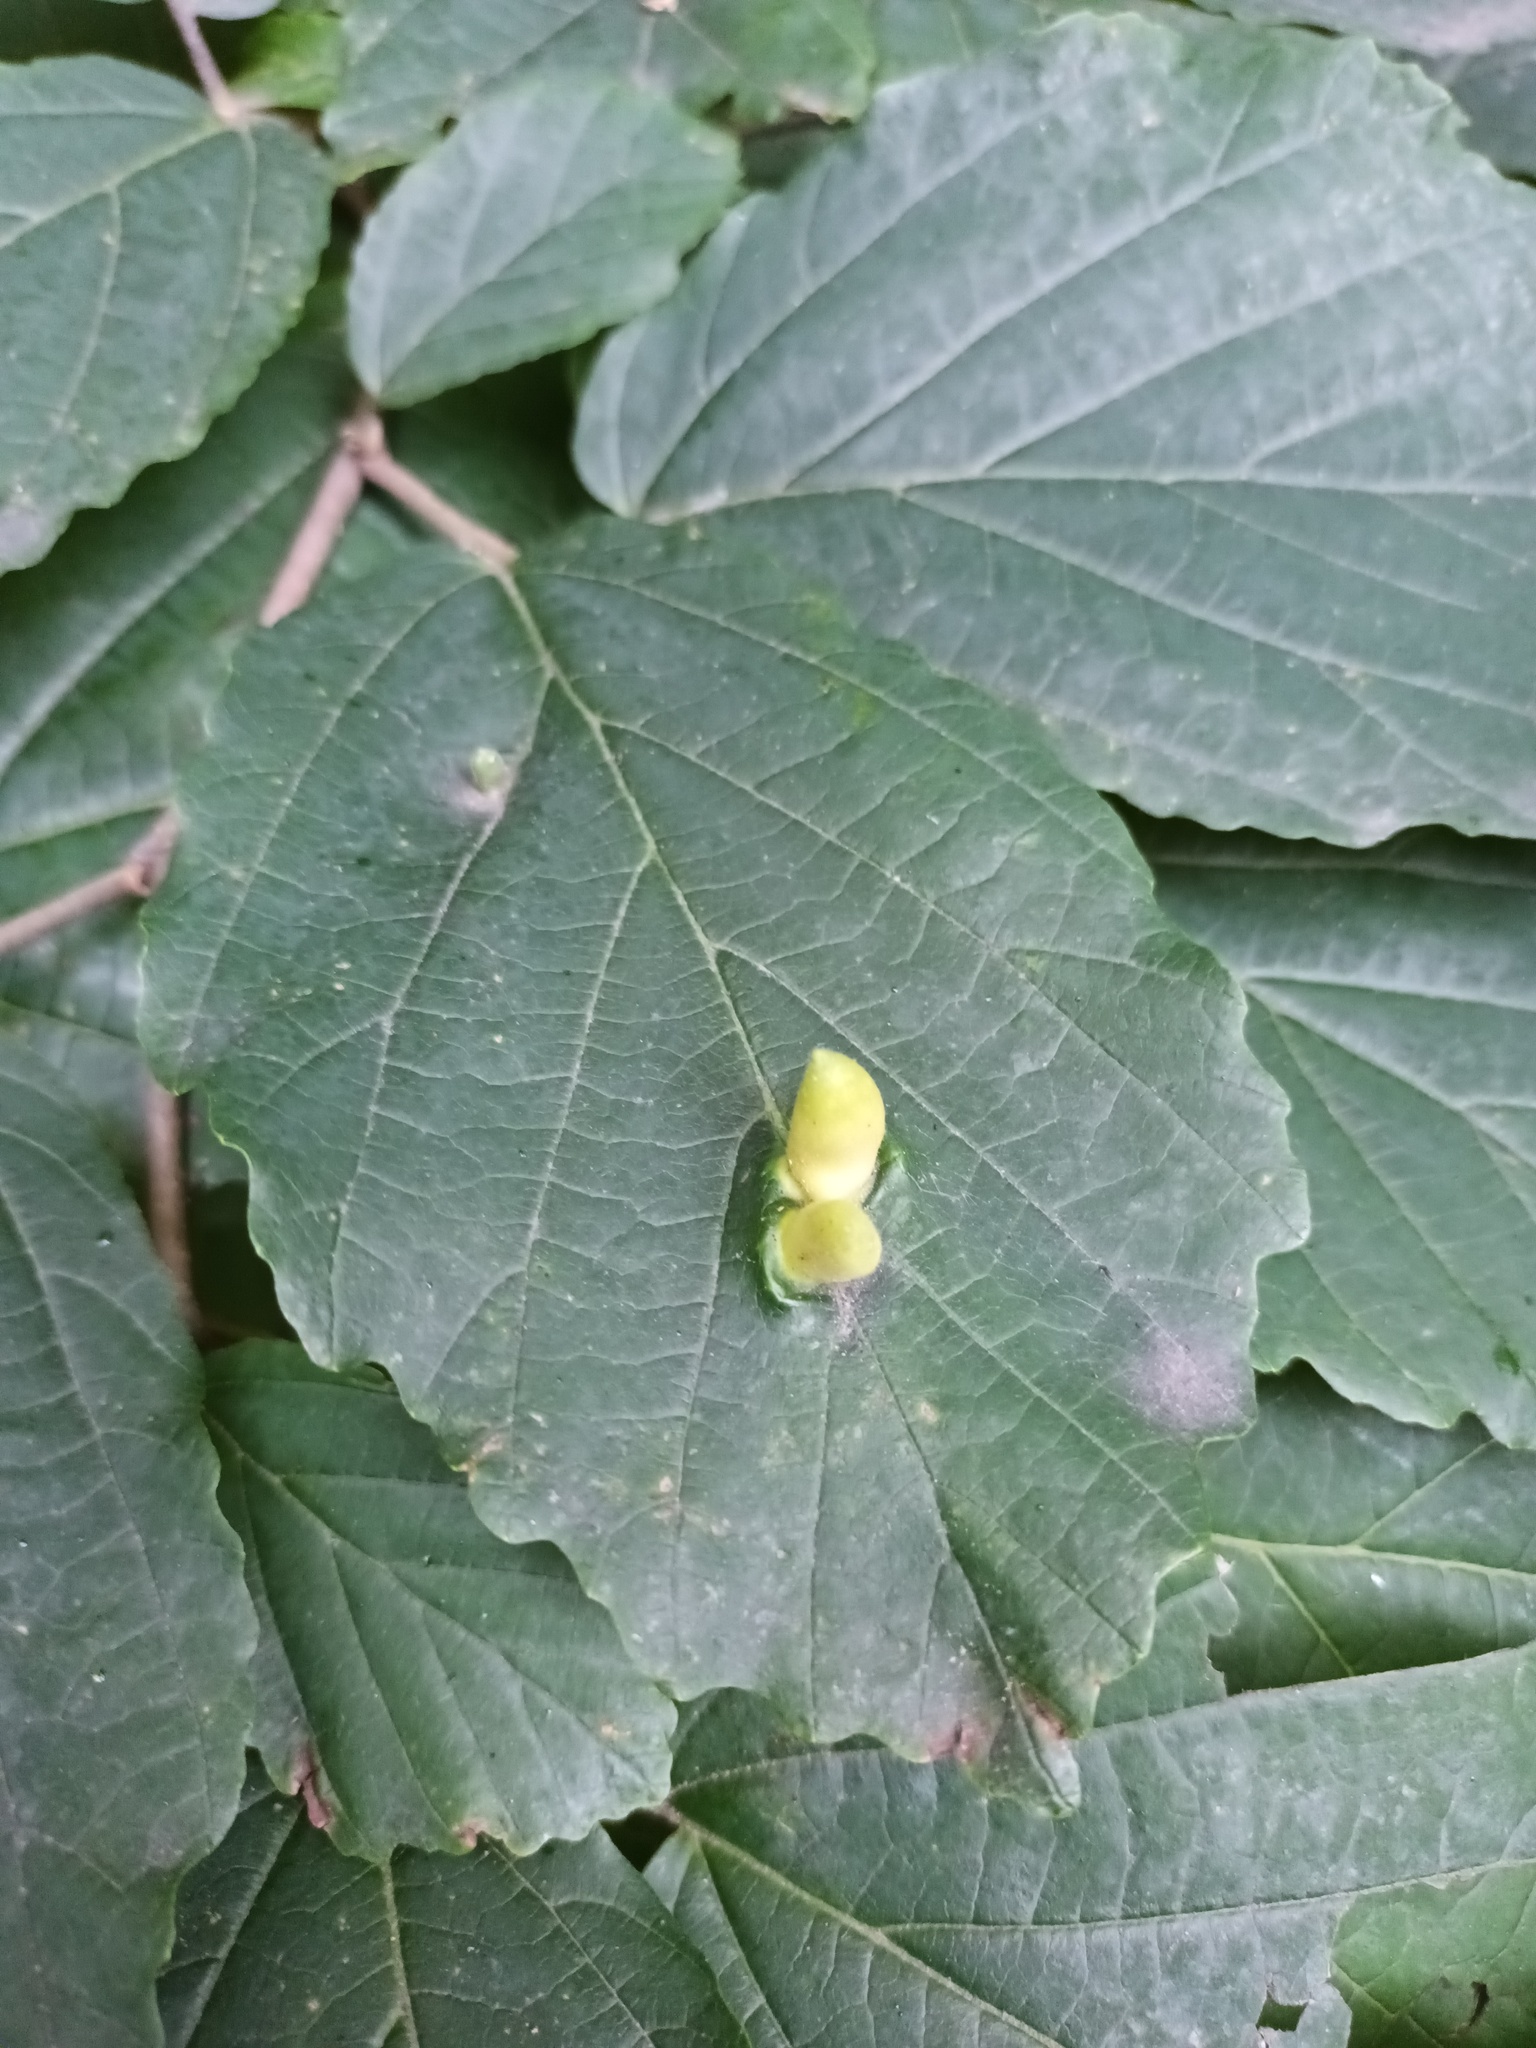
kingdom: Animalia
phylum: Arthropoda
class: Insecta
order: Hemiptera
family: Aphididae
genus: Hormaphis
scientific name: Hormaphis hamamelidis
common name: Witch-hazel cone gall aphid
